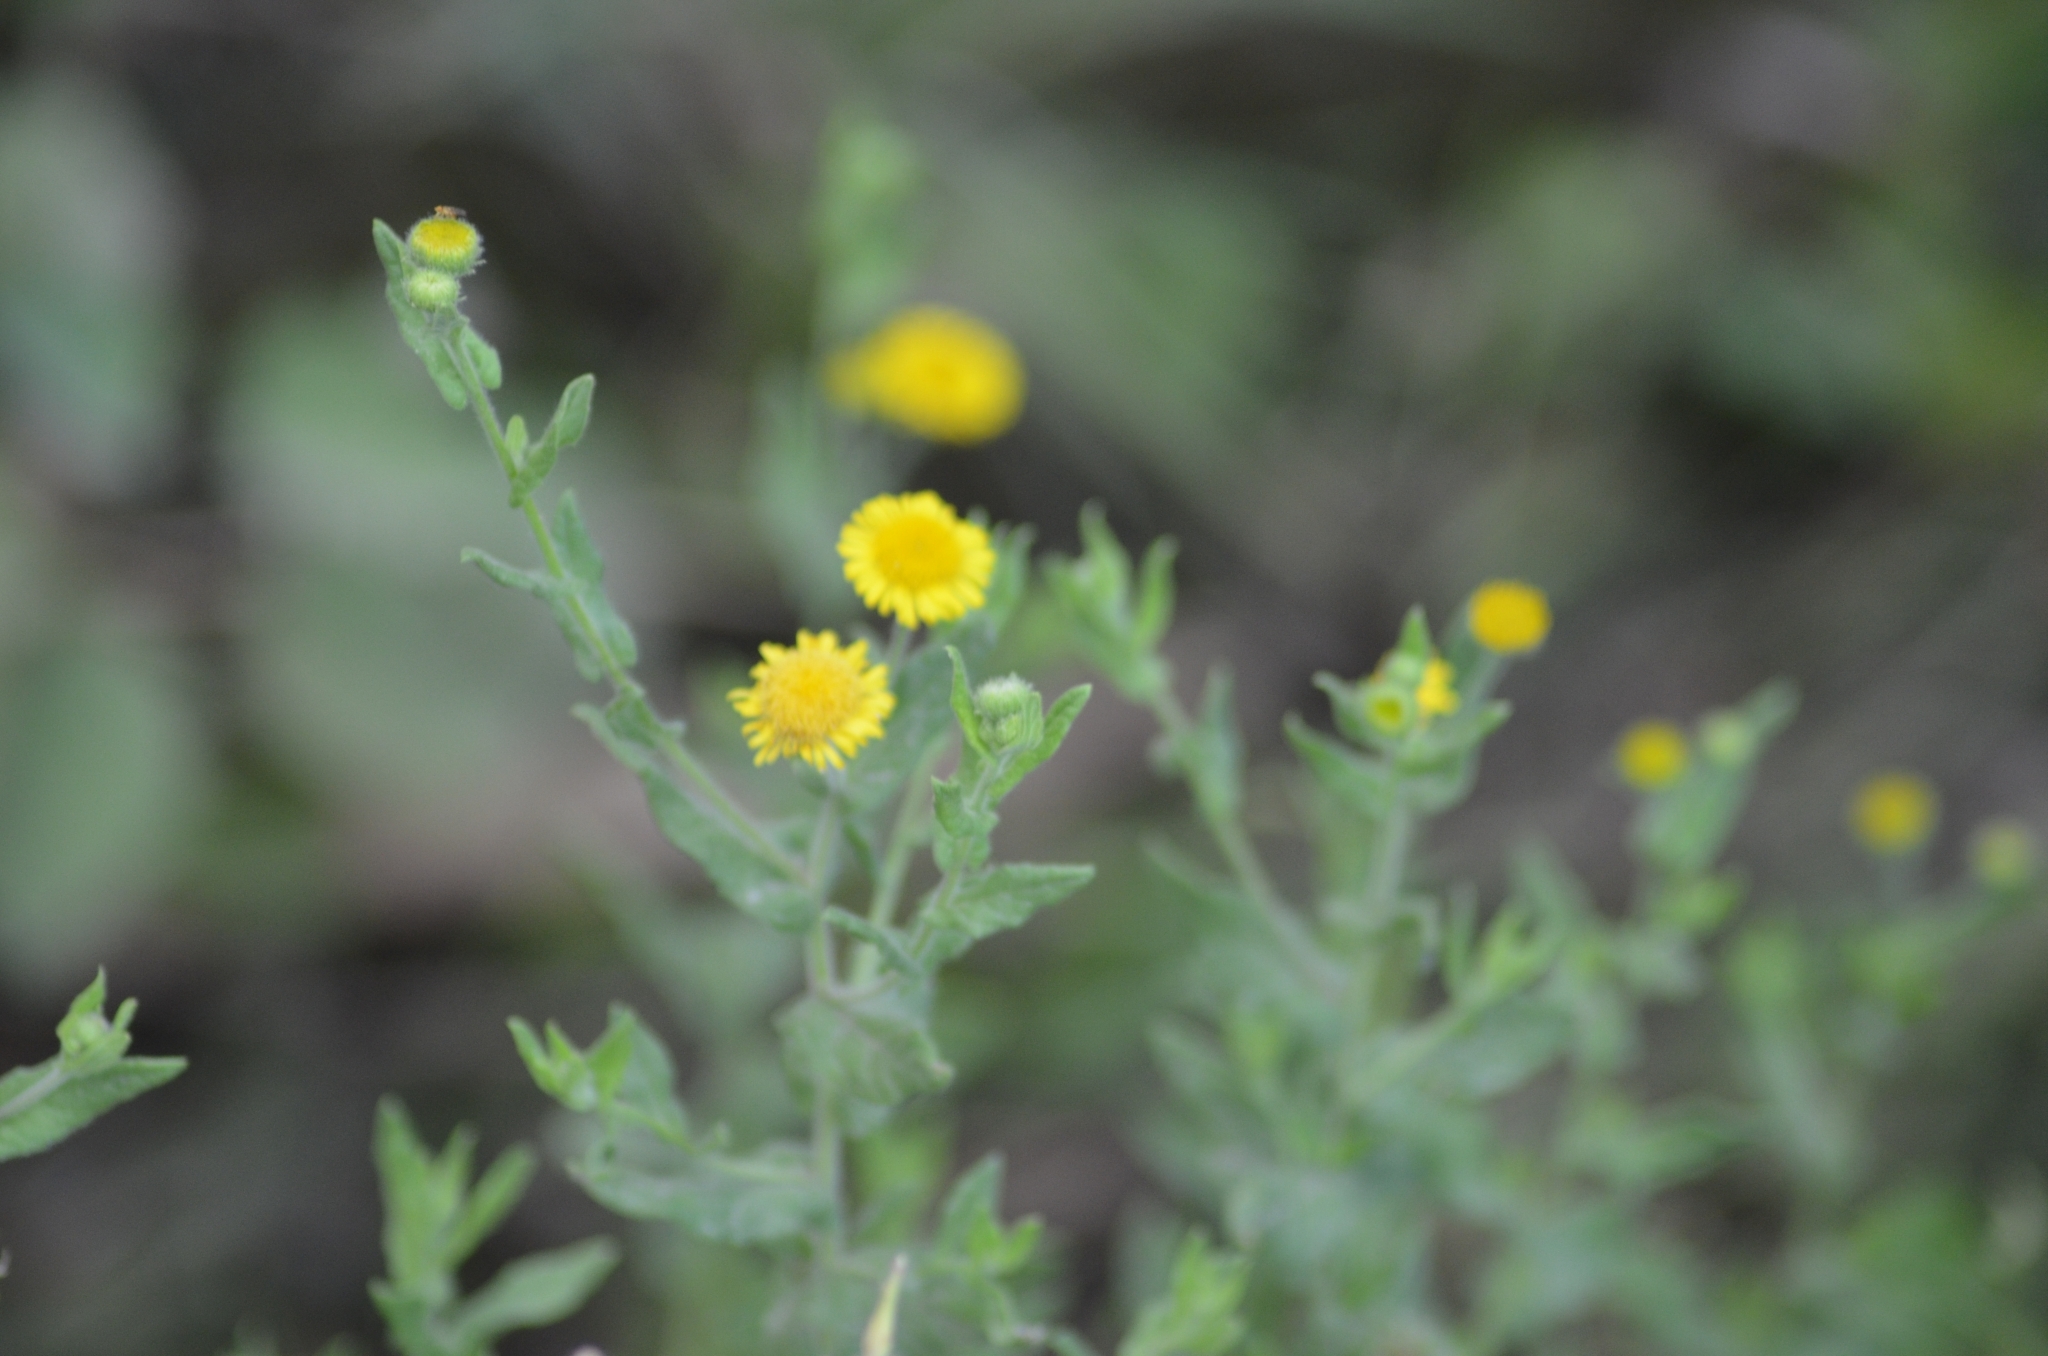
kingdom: Plantae
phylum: Tracheophyta
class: Magnoliopsida
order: Asterales
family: Asteraceae
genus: Pulicaria
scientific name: Pulicaria dysenterica
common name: Common fleabane
